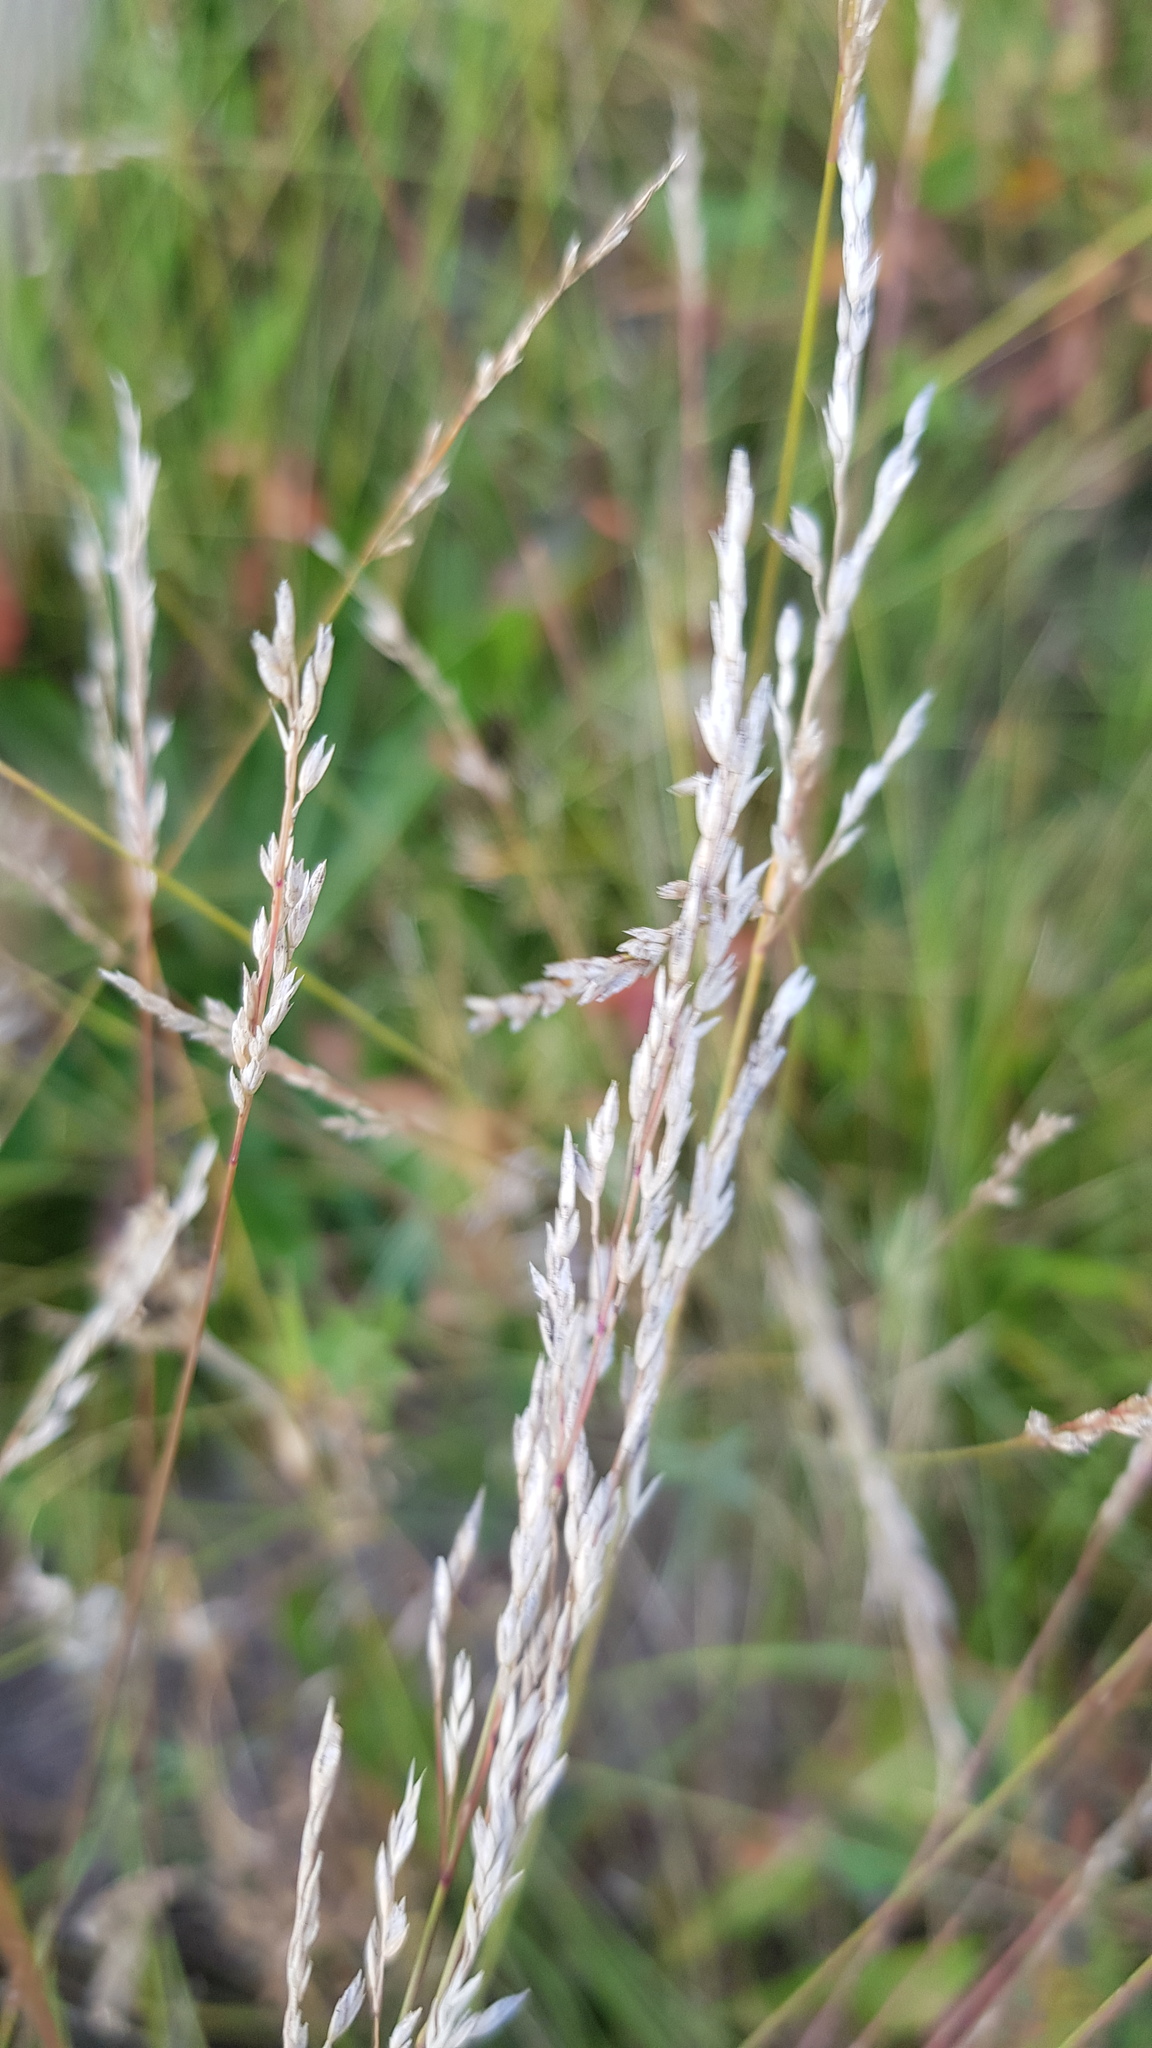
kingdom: Plantae
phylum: Tracheophyta
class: Liliopsida
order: Poales
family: Poaceae
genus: Poa
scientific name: Poa pratensis
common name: Kentucky bluegrass
